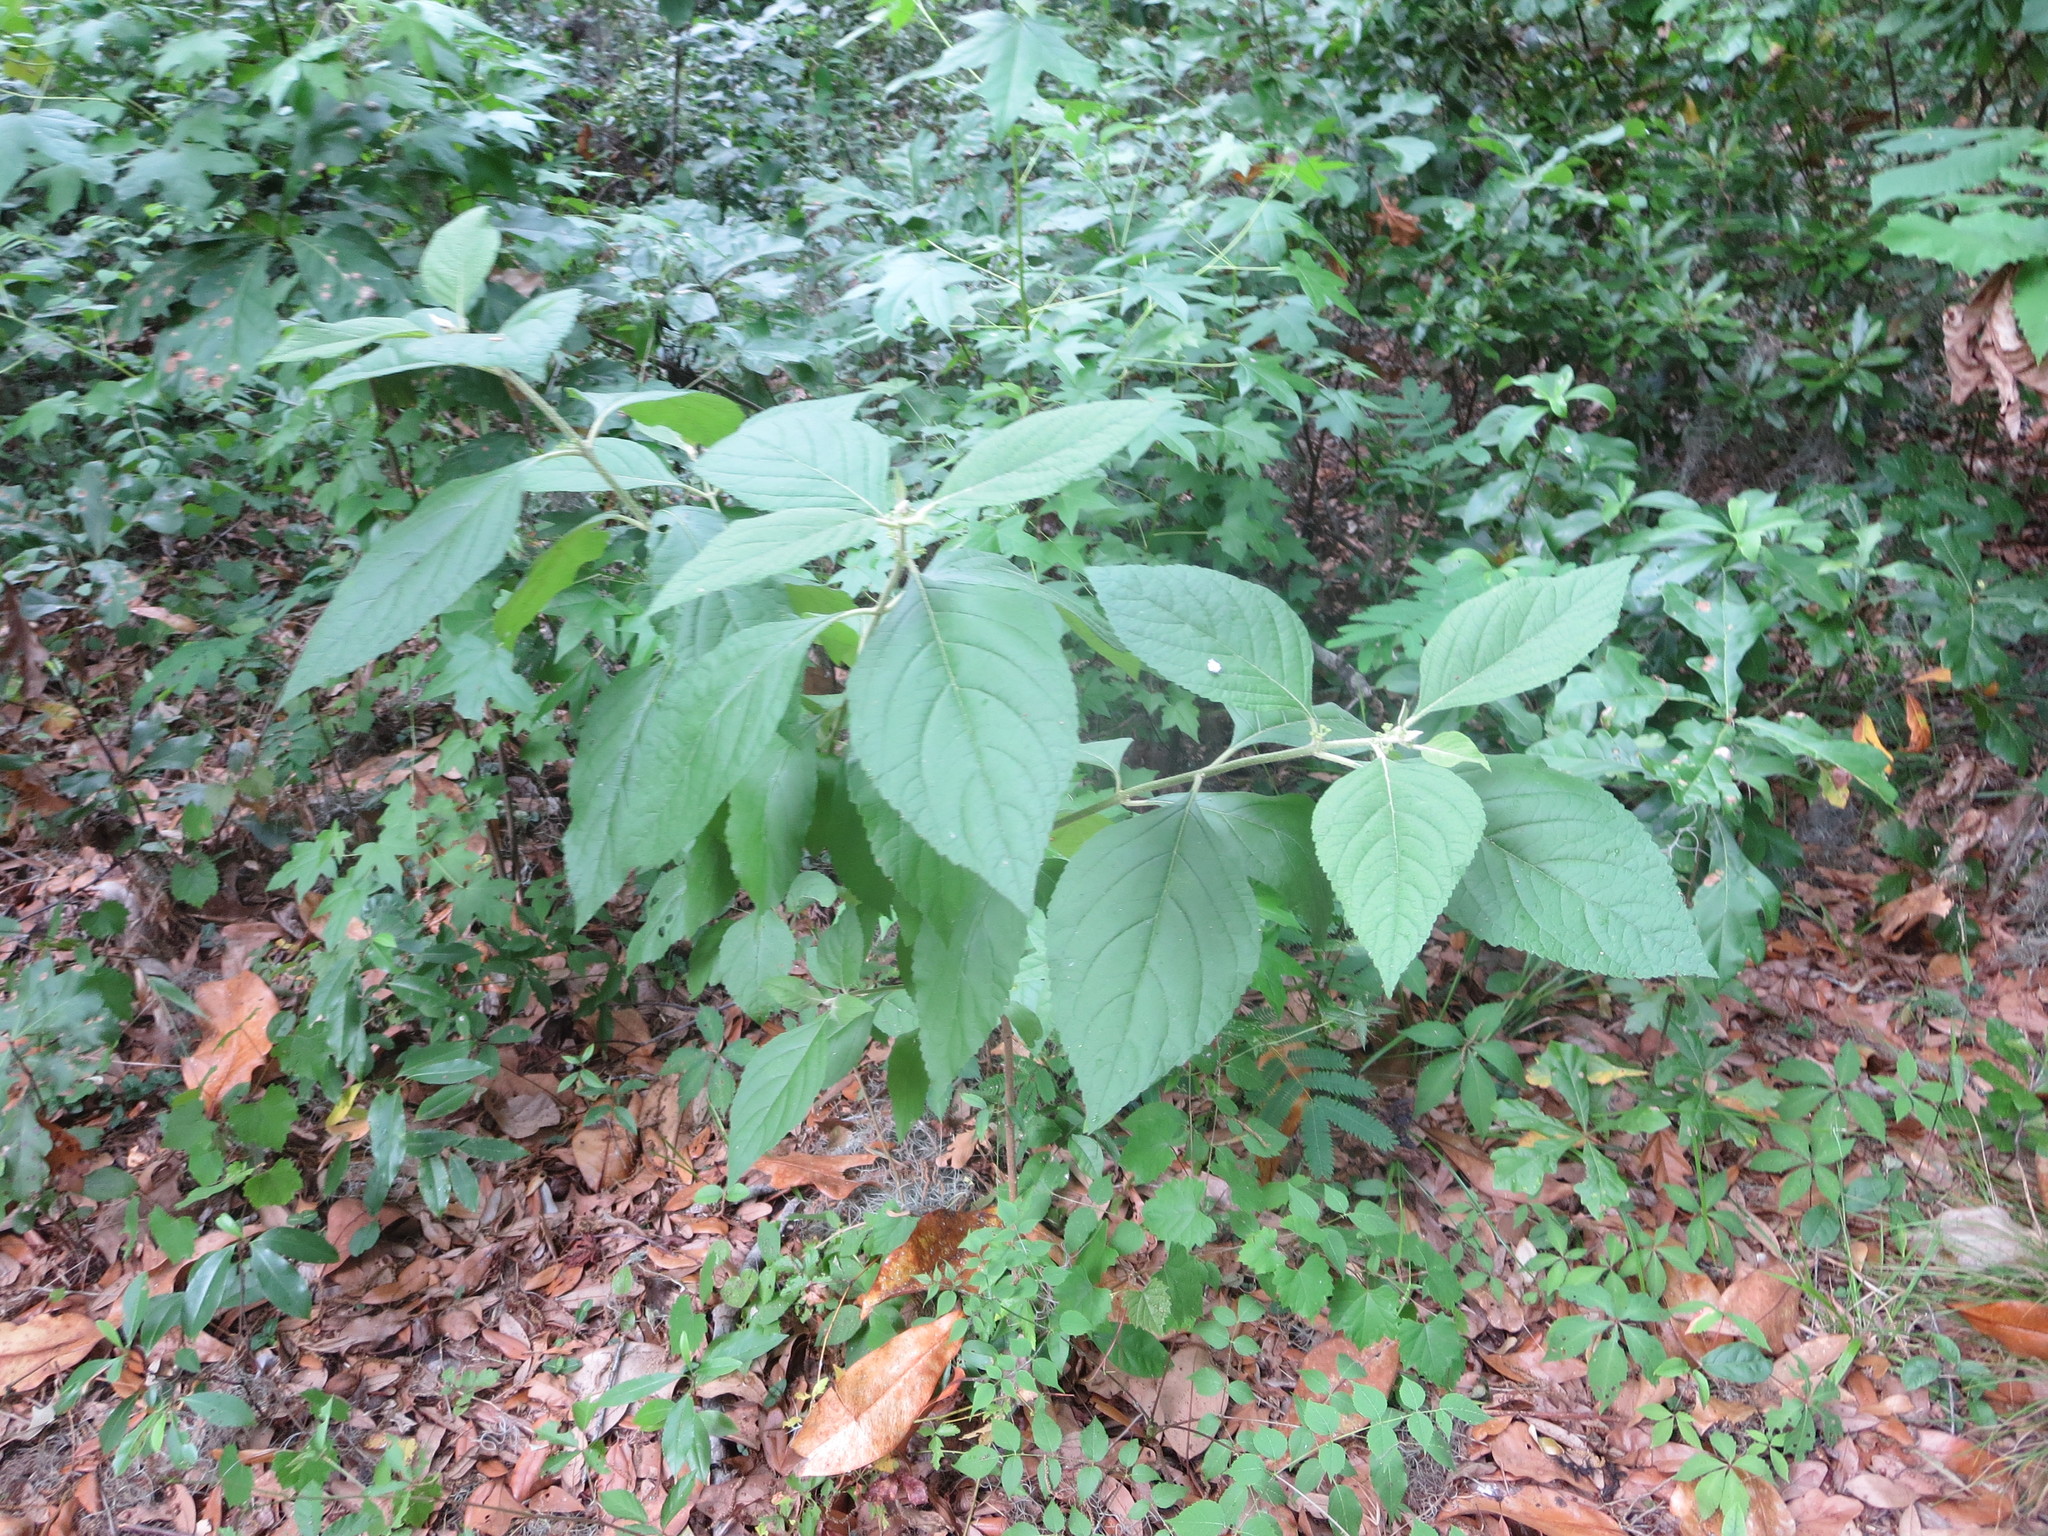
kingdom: Plantae
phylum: Tracheophyta
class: Magnoliopsida
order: Lamiales
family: Lamiaceae
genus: Callicarpa
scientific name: Callicarpa americana
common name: American beautyberry
